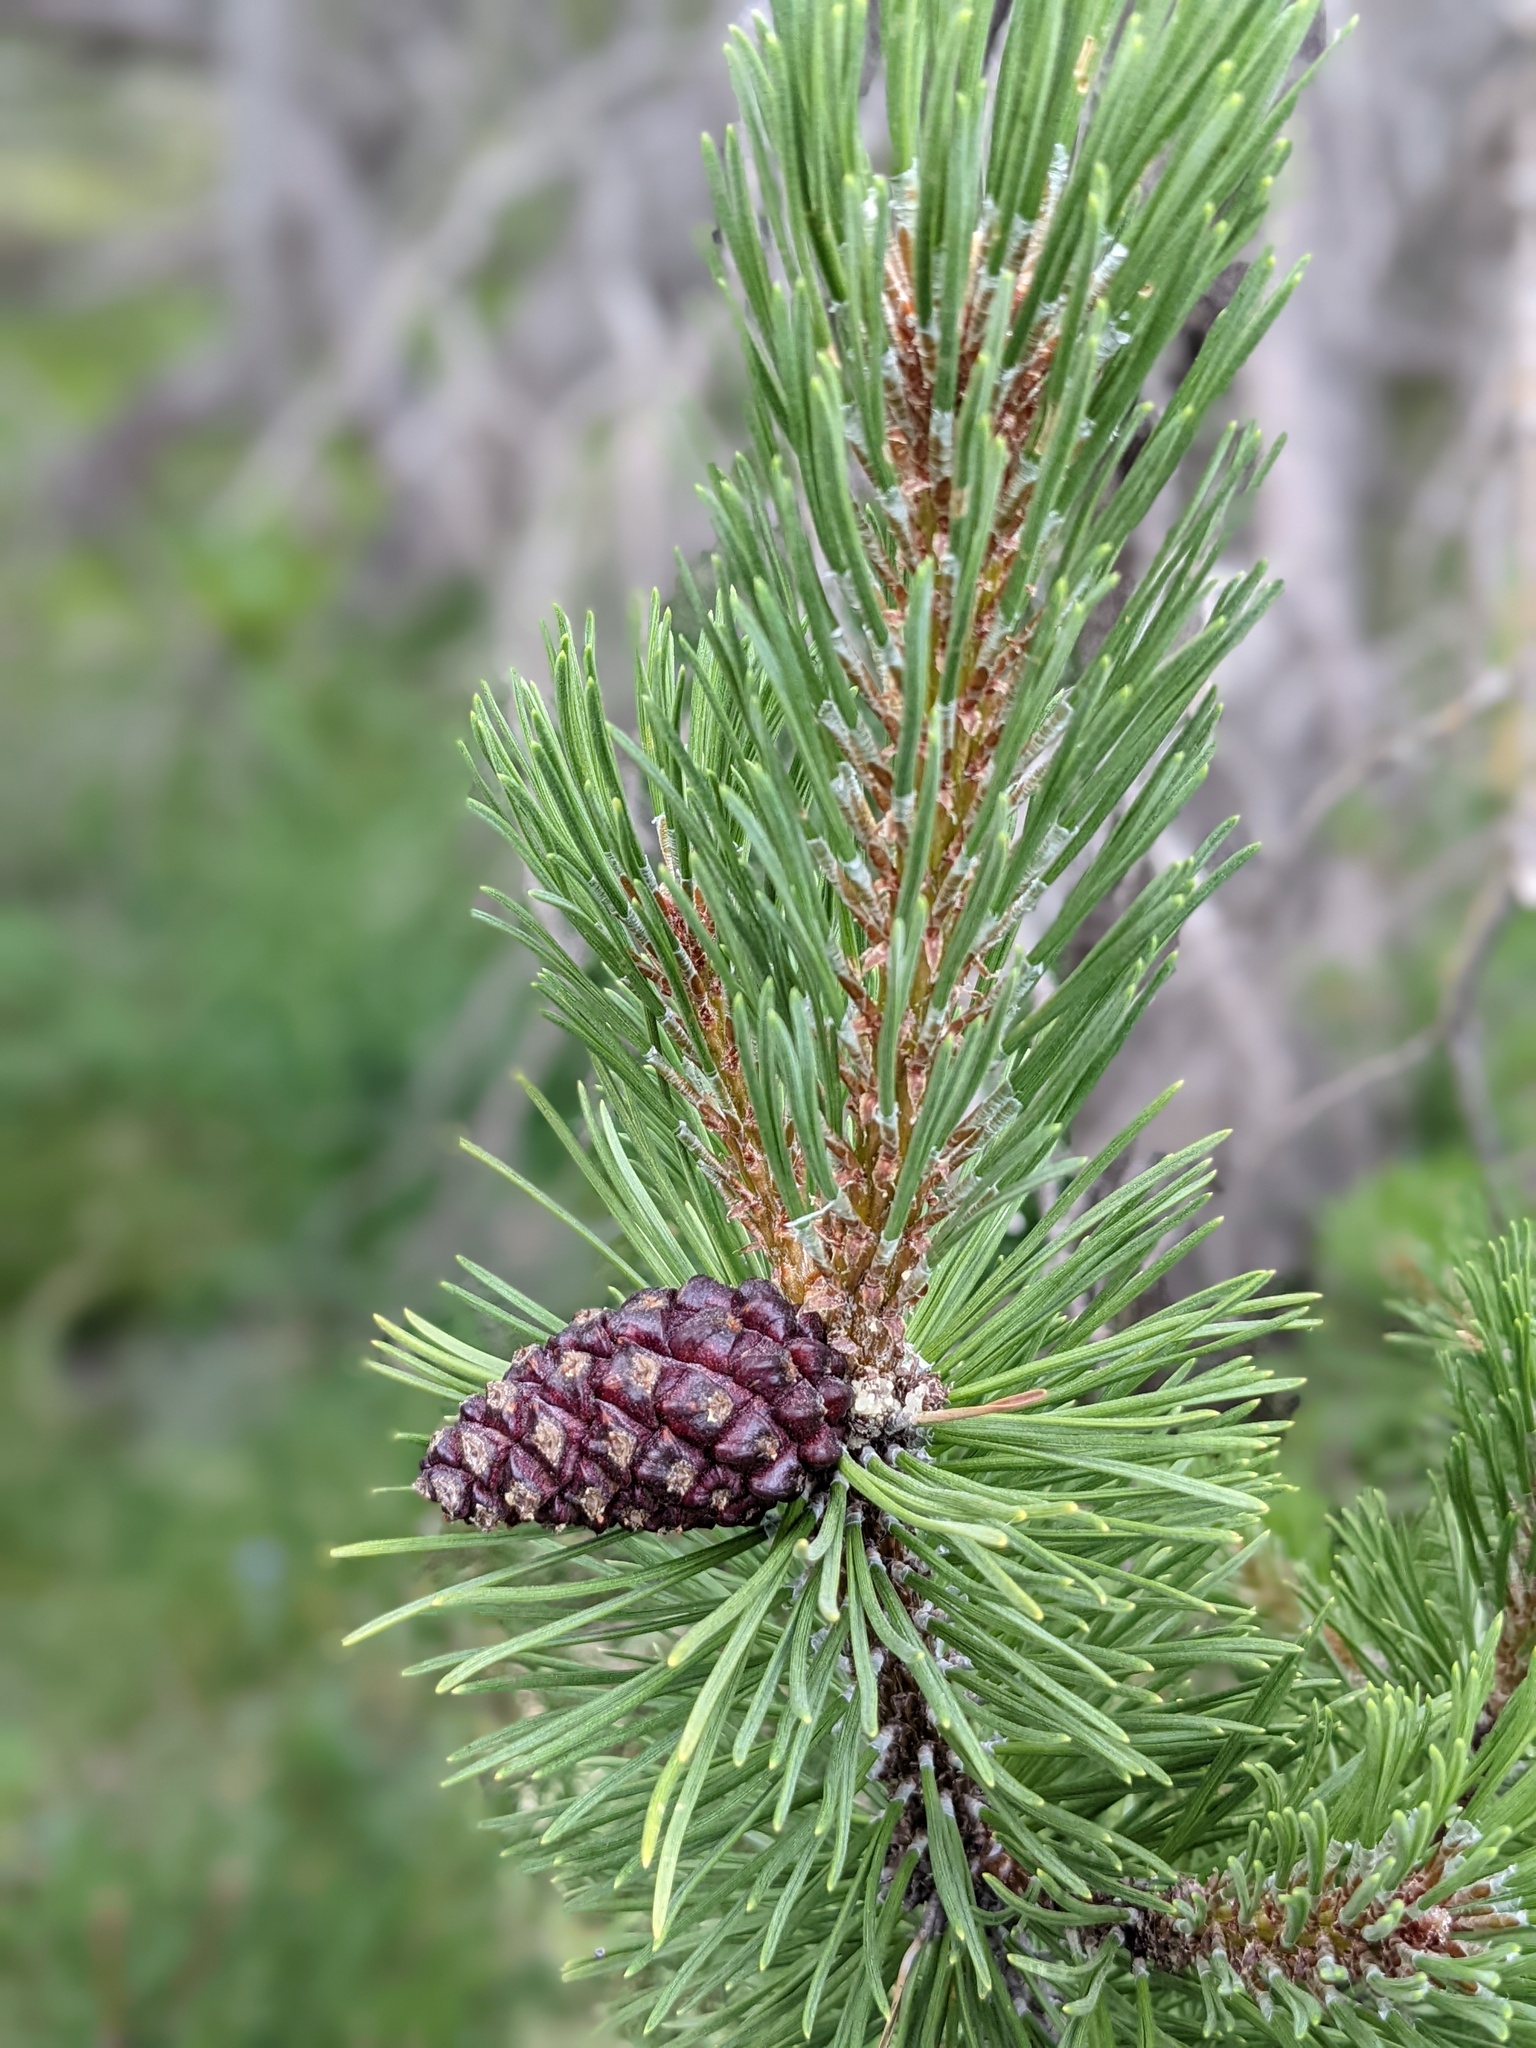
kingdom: Plantae
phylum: Tracheophyta
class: Pinopsida
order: Pinales
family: Pinaceae
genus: Pinus
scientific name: Pinus mugo
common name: Mugo pine
